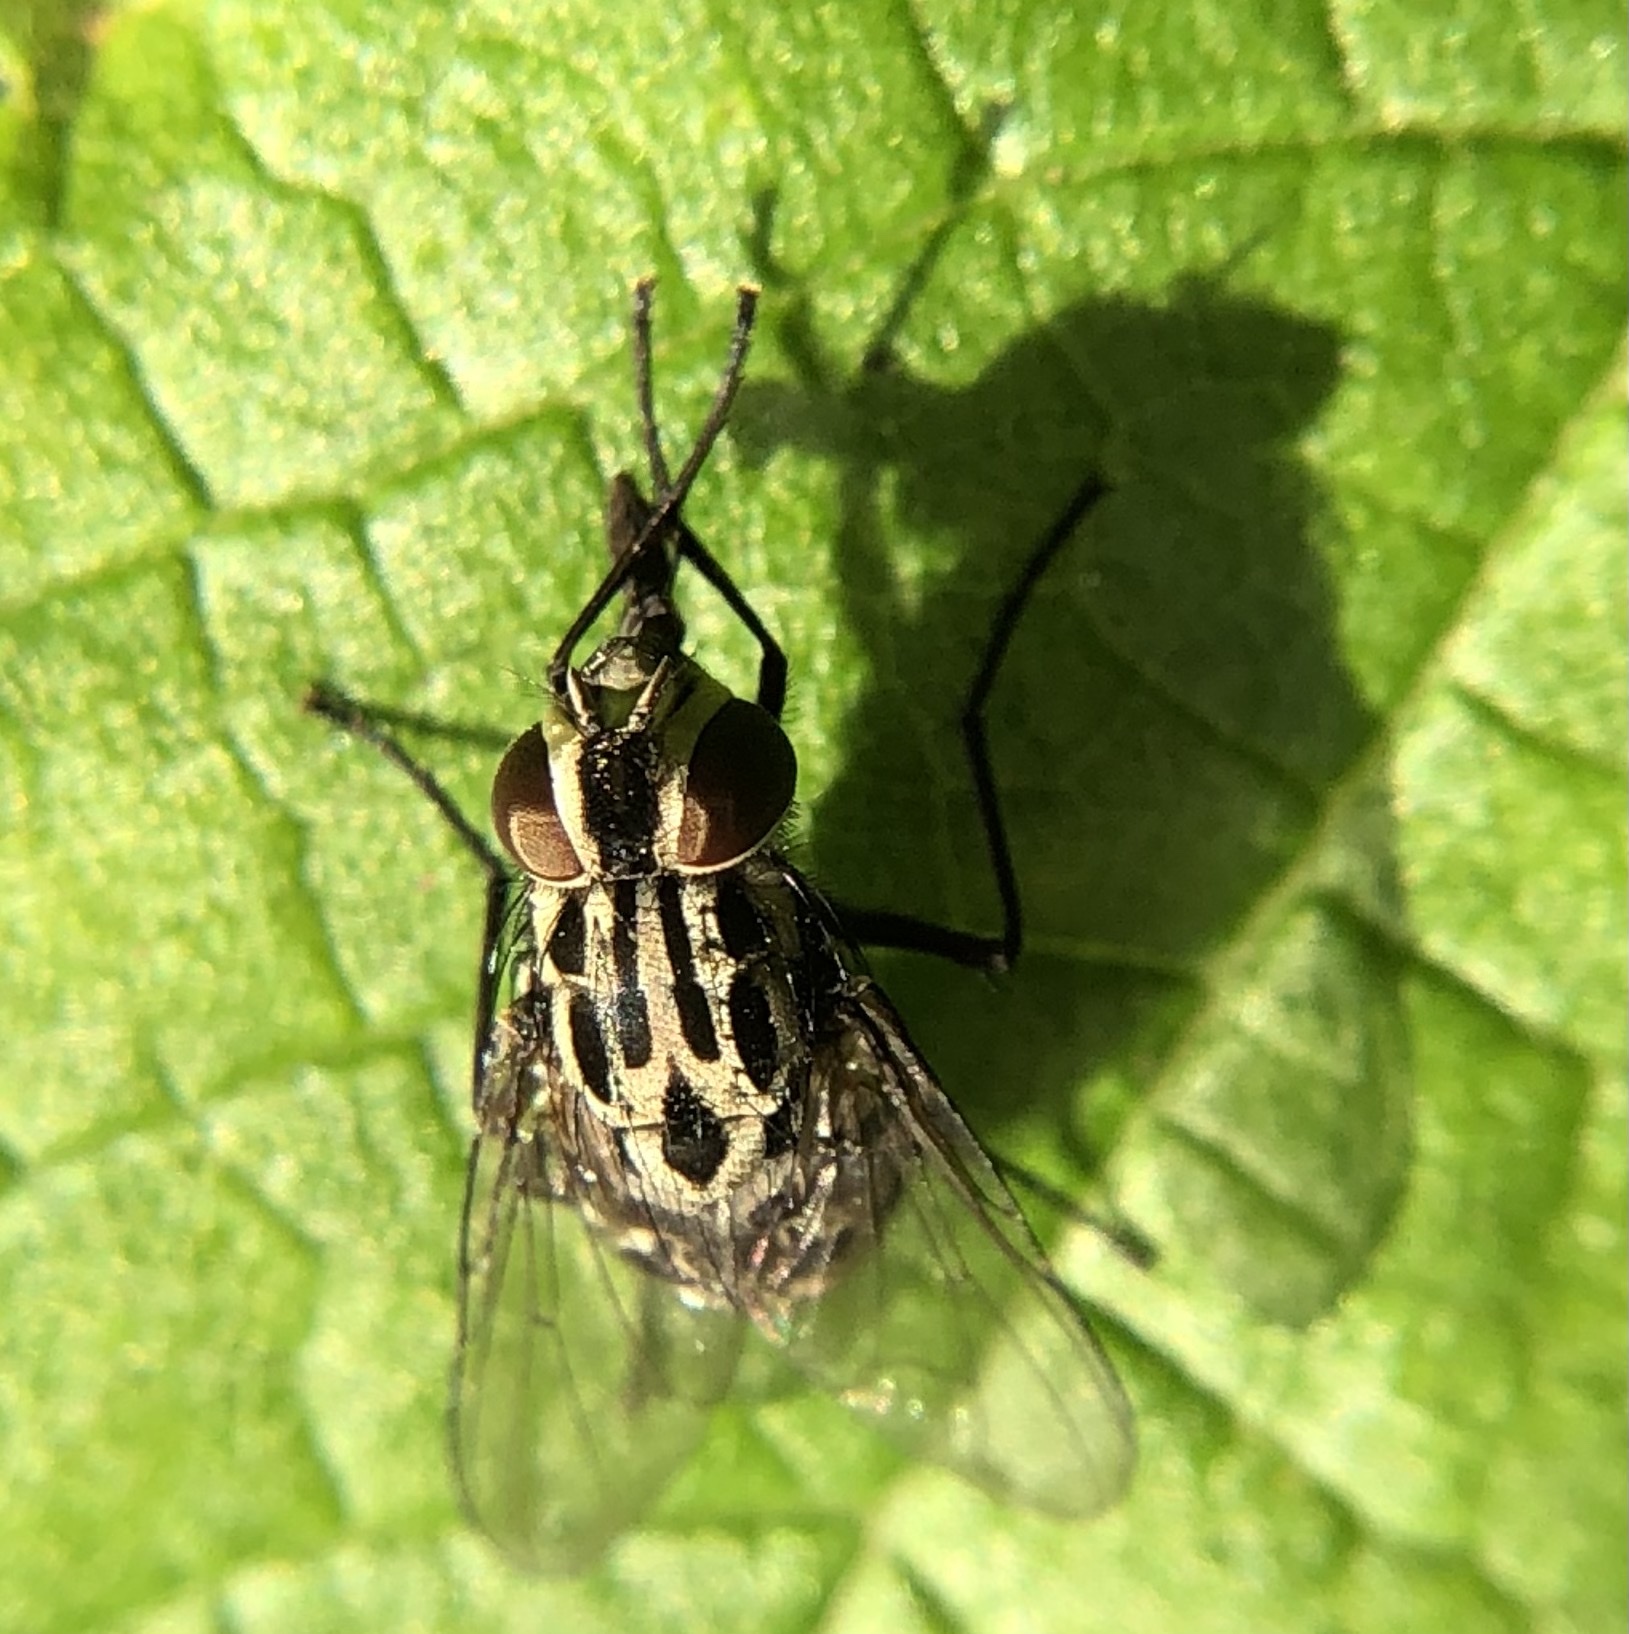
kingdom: Animalia
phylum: Arthropoda
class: Insecta
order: Diptera
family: Muscidae
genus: Graphomya
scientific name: Graphomya maculata
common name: Muscid fly
